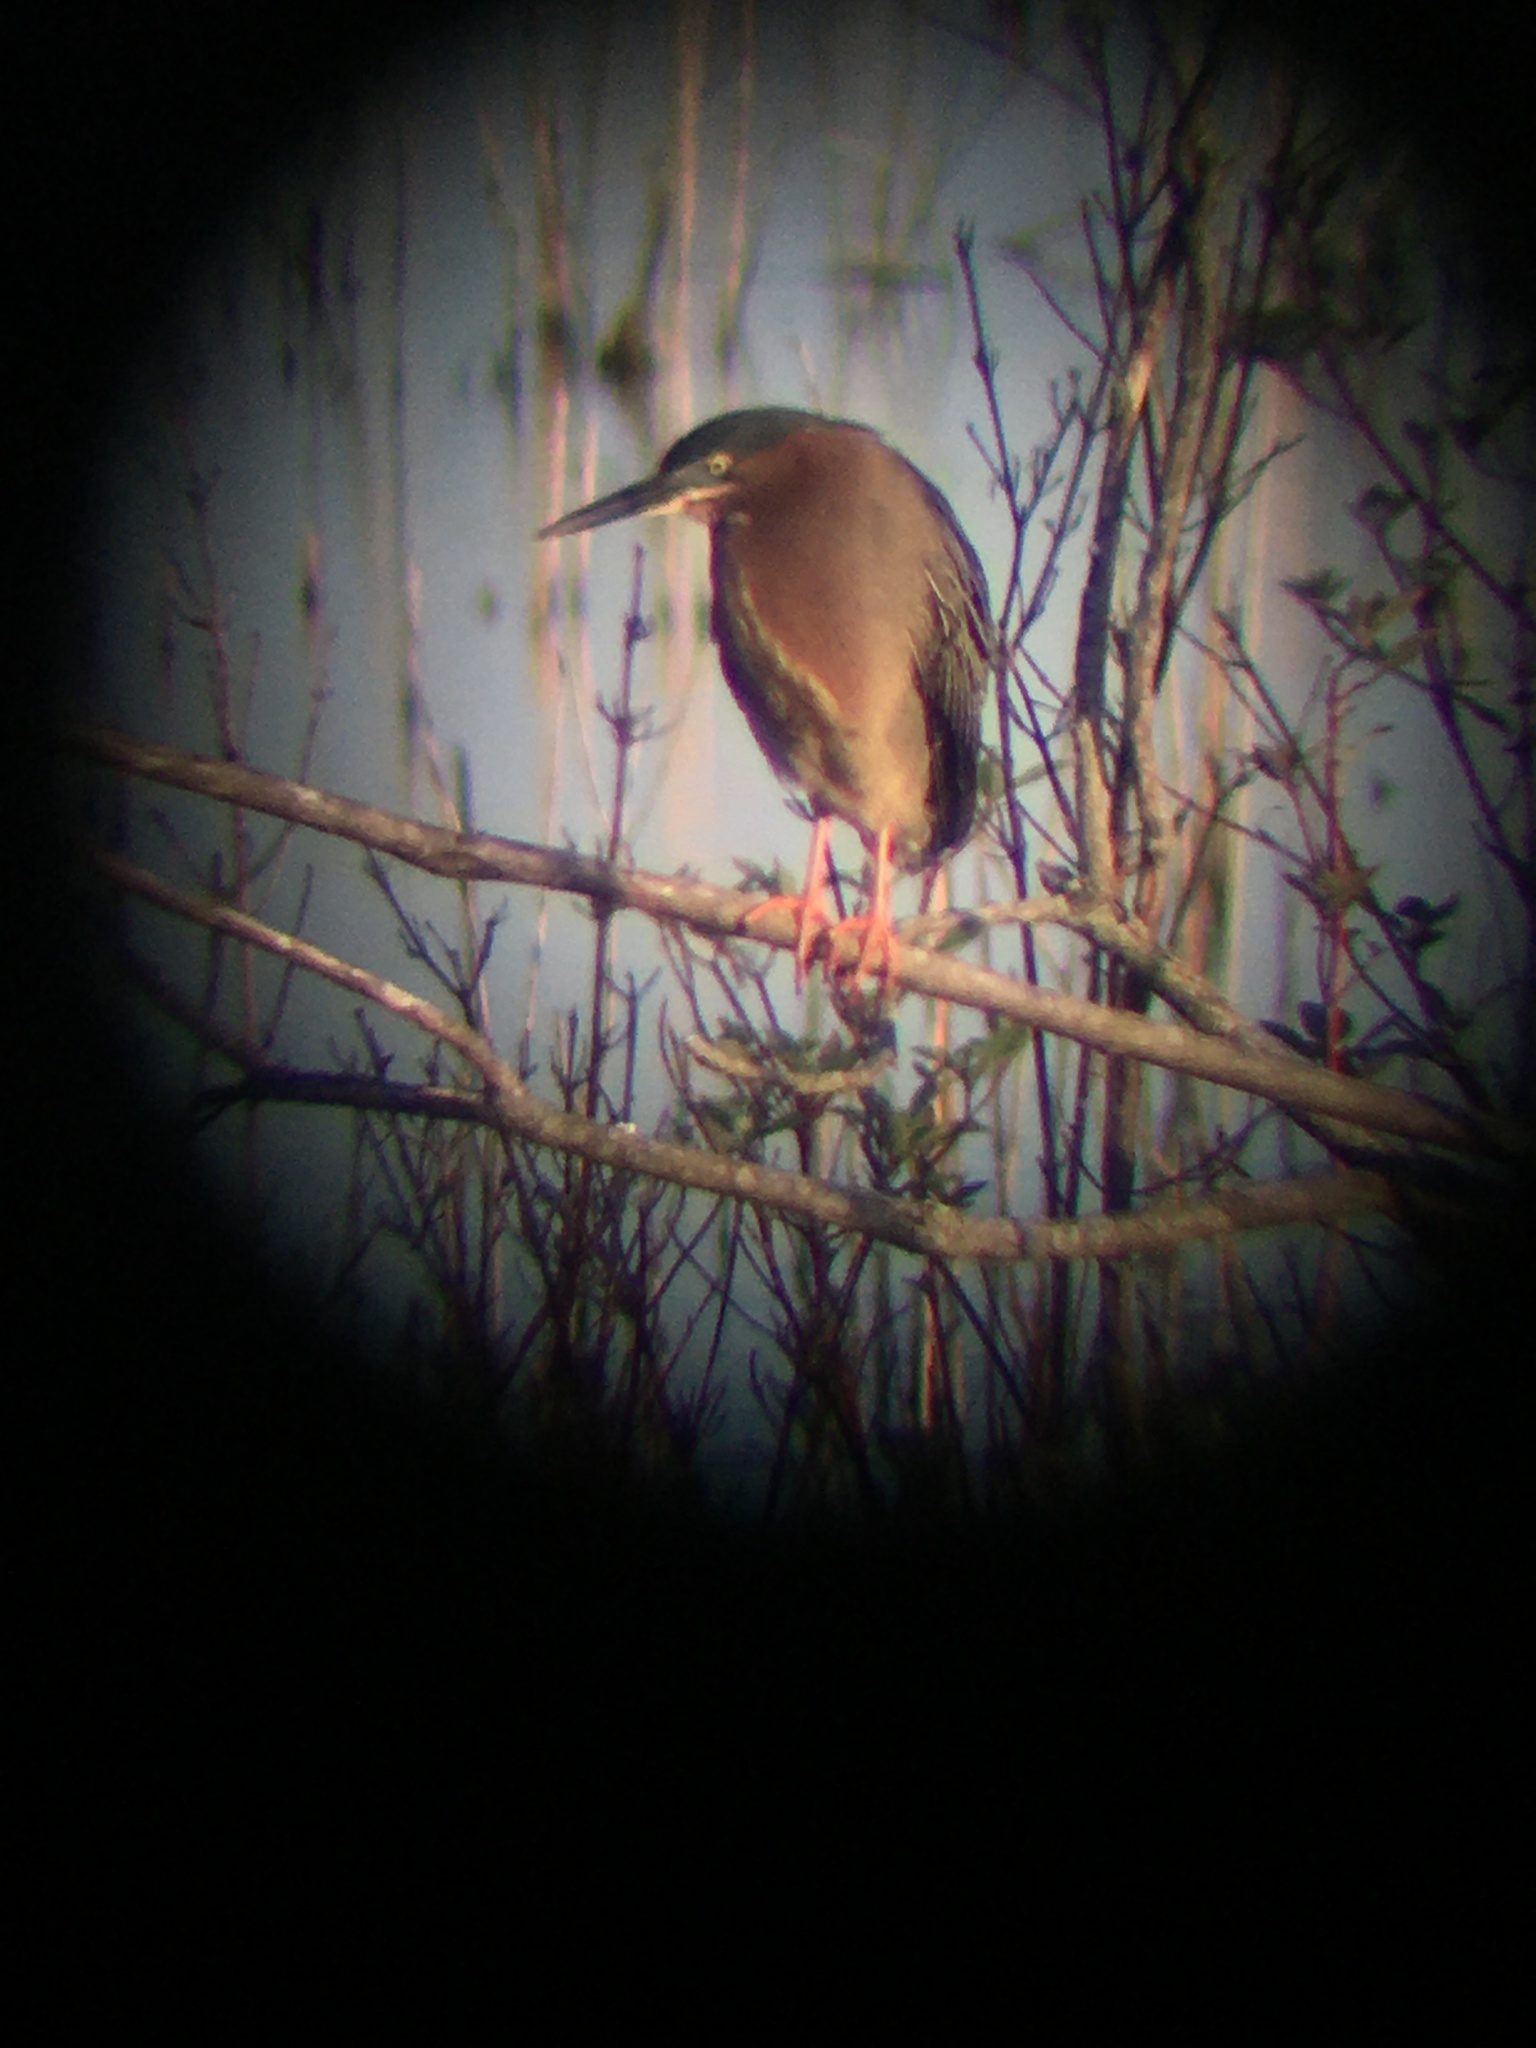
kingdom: Animalia
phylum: Chordata
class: Aves
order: Pelecaniformes
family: Ardeidae
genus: Butorides
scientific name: Butorides virescens
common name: Green heron
